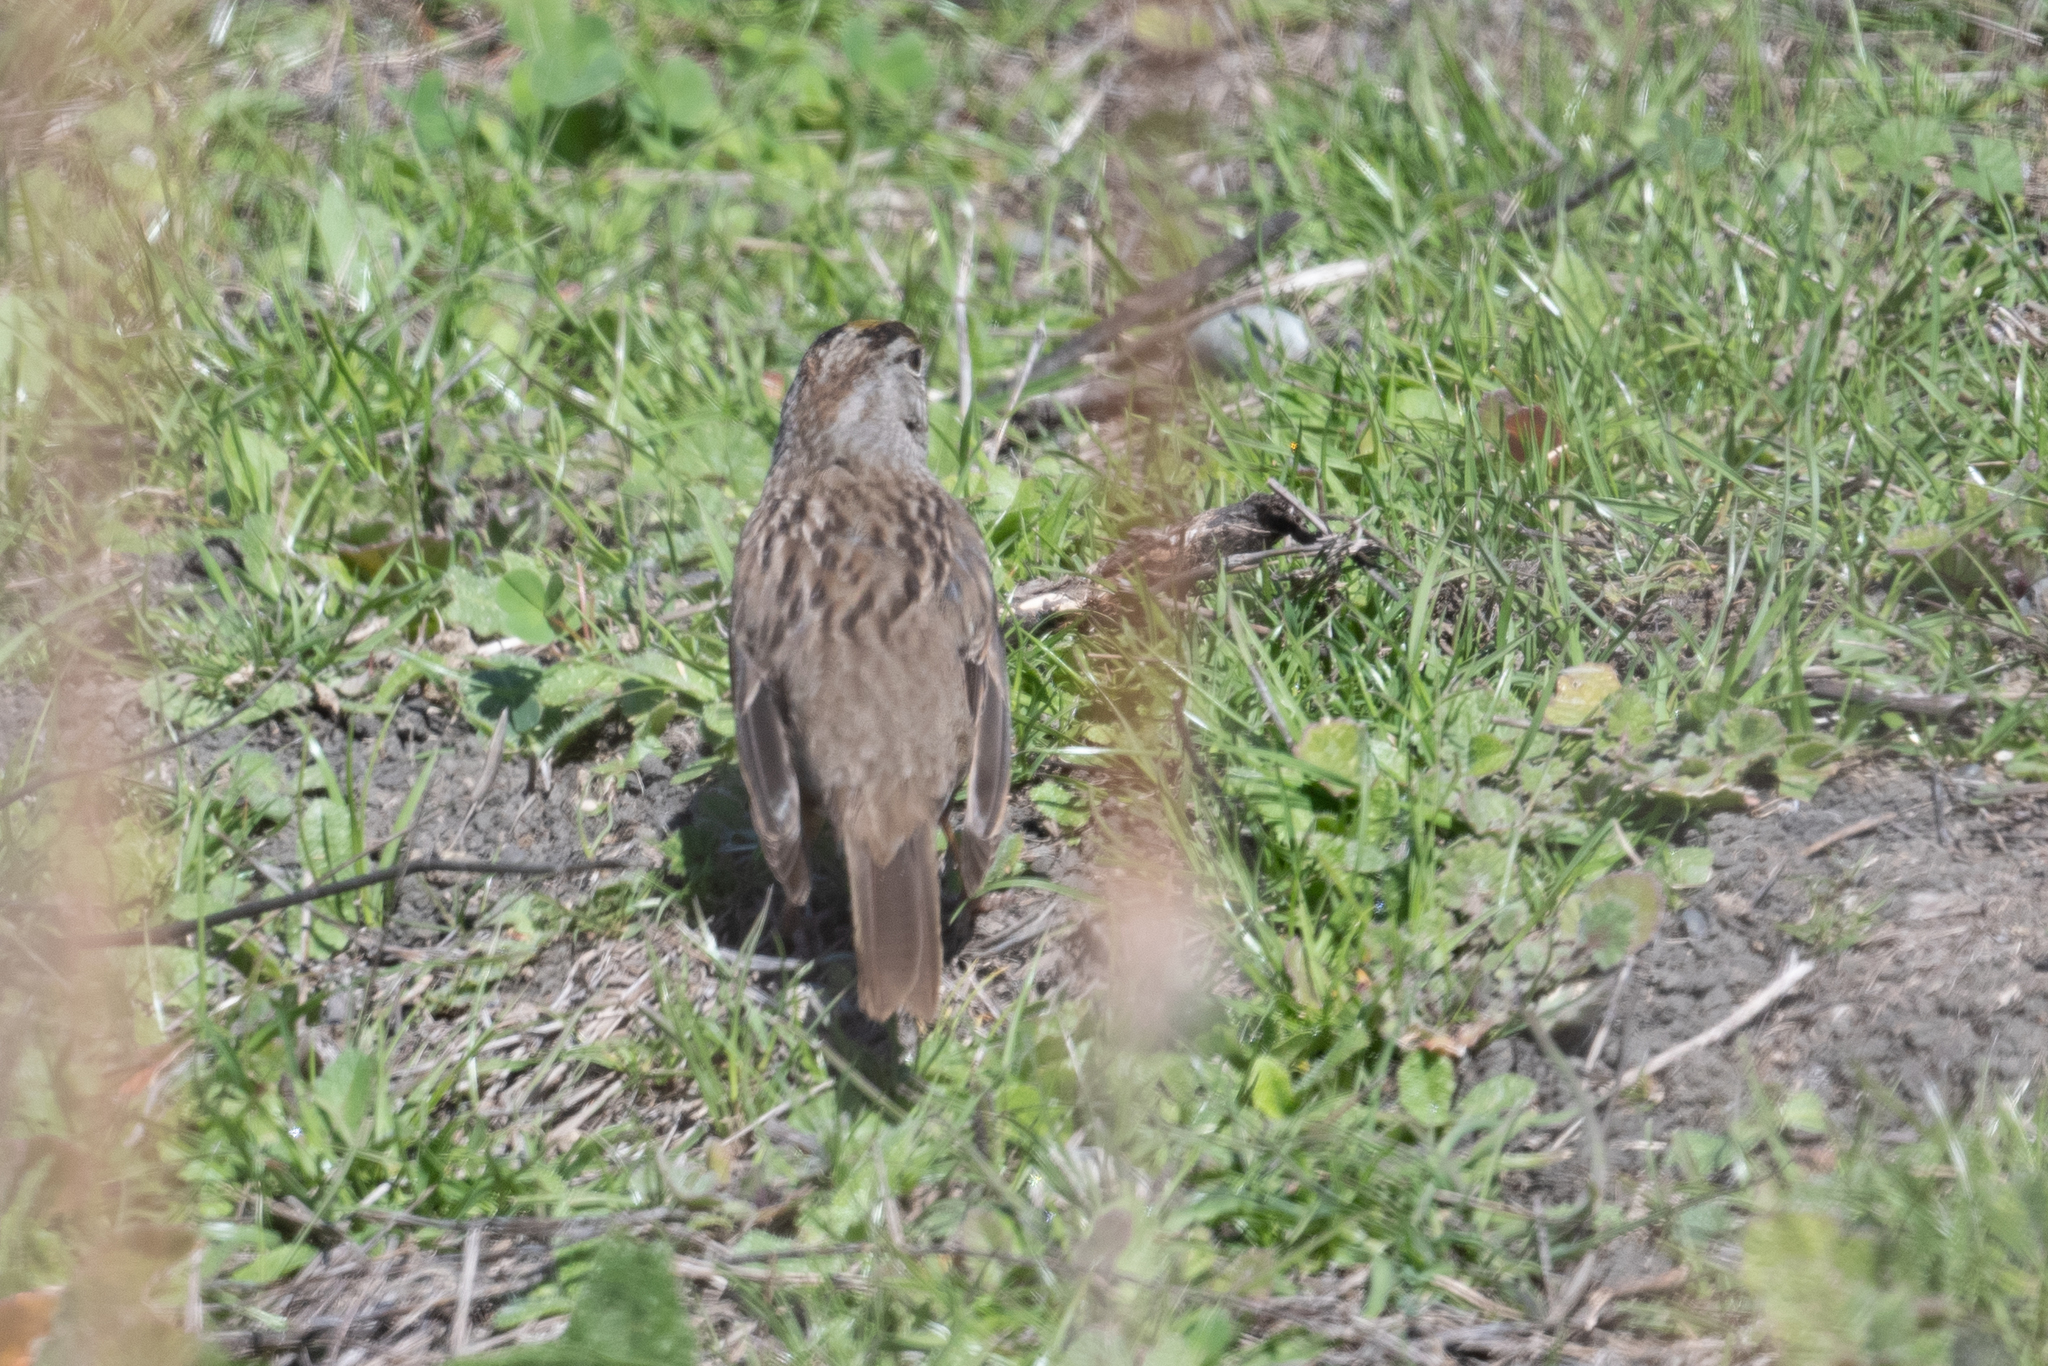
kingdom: Animalia
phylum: Chordata
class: Aves
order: Passeriformes
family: Passerellidae
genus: Zonotrichia
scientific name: Zonotrichia atricapilla
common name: Golden-crowned sparrow
